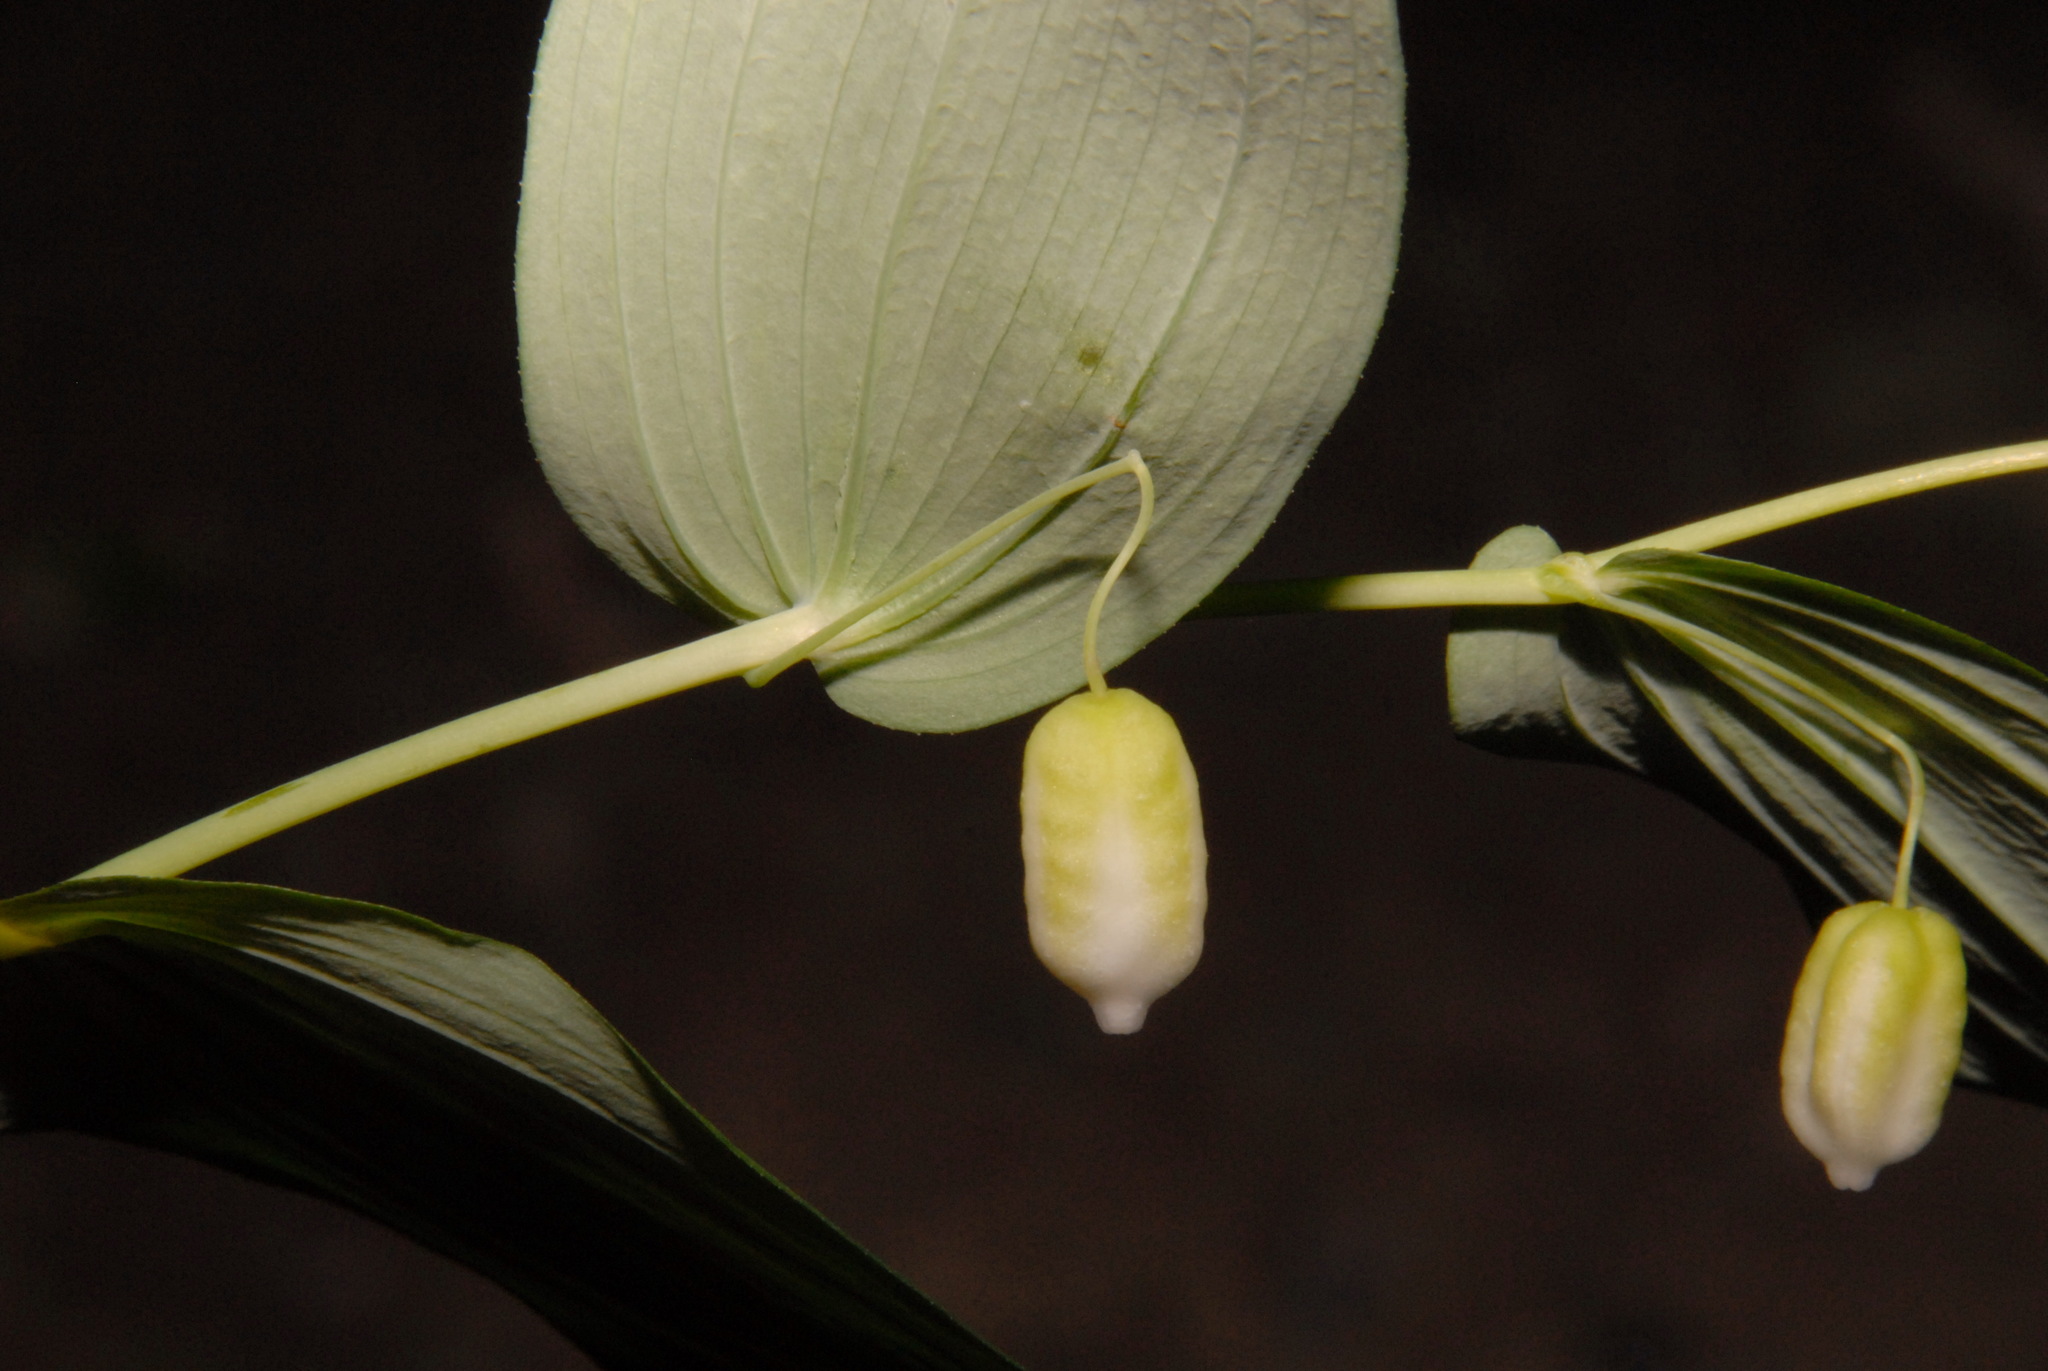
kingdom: Plantae
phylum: Tracheophyta
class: Liliopsida
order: Liliales
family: Liliaceae
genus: Streptopus
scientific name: Streptopus amplexifolius
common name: Clasp twisted stalk
